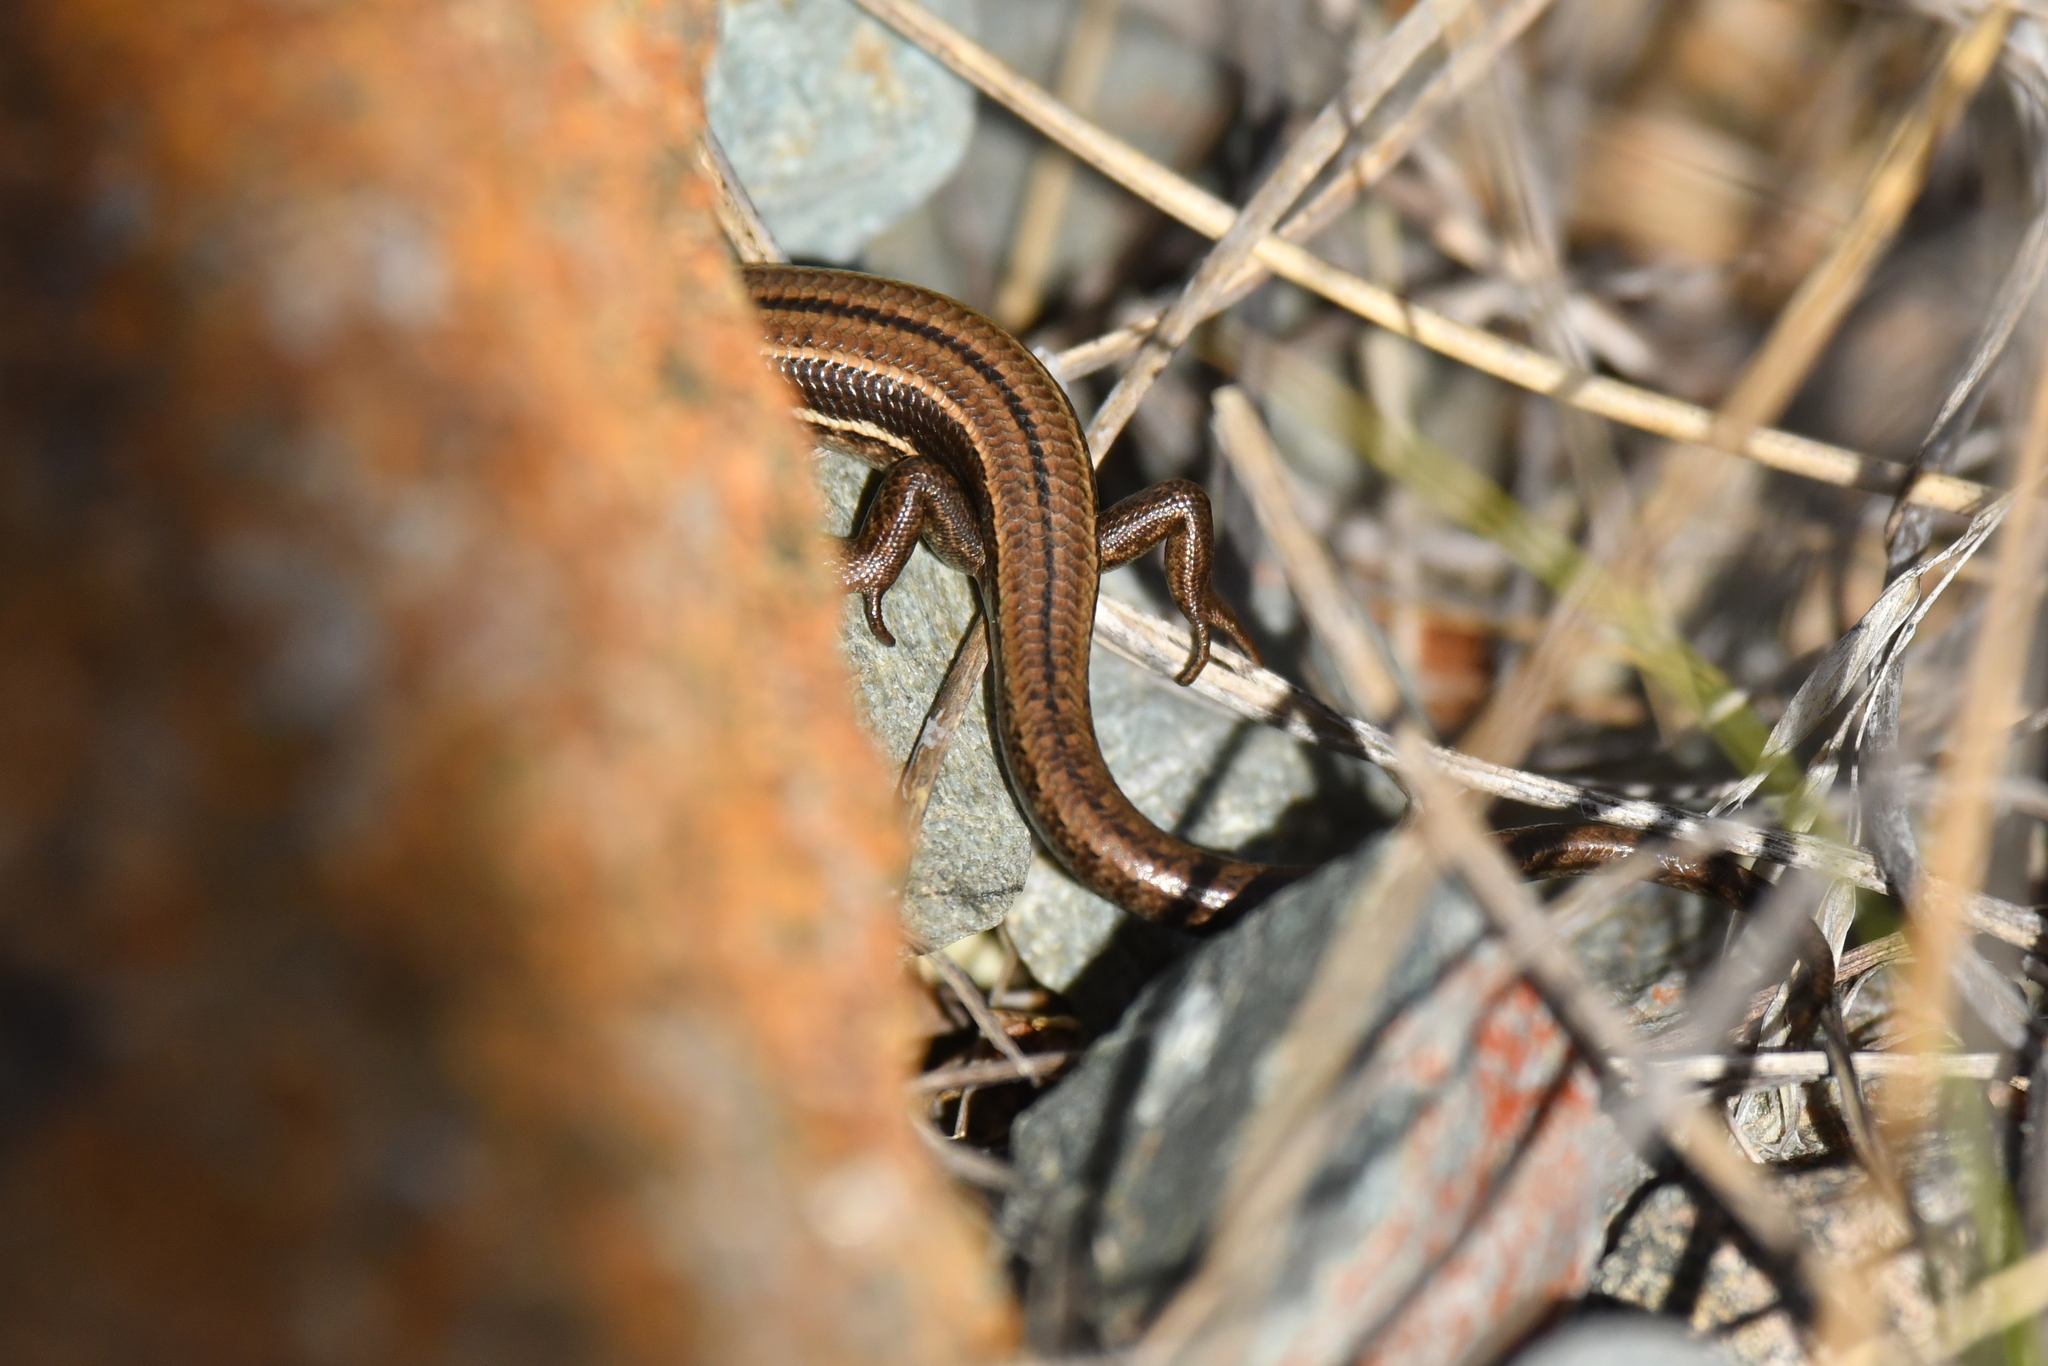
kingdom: Animalia
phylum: Chordata
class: Squamata
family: Scincidae
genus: Oligosoma
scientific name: Oligosoma repens
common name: Eyres skink
